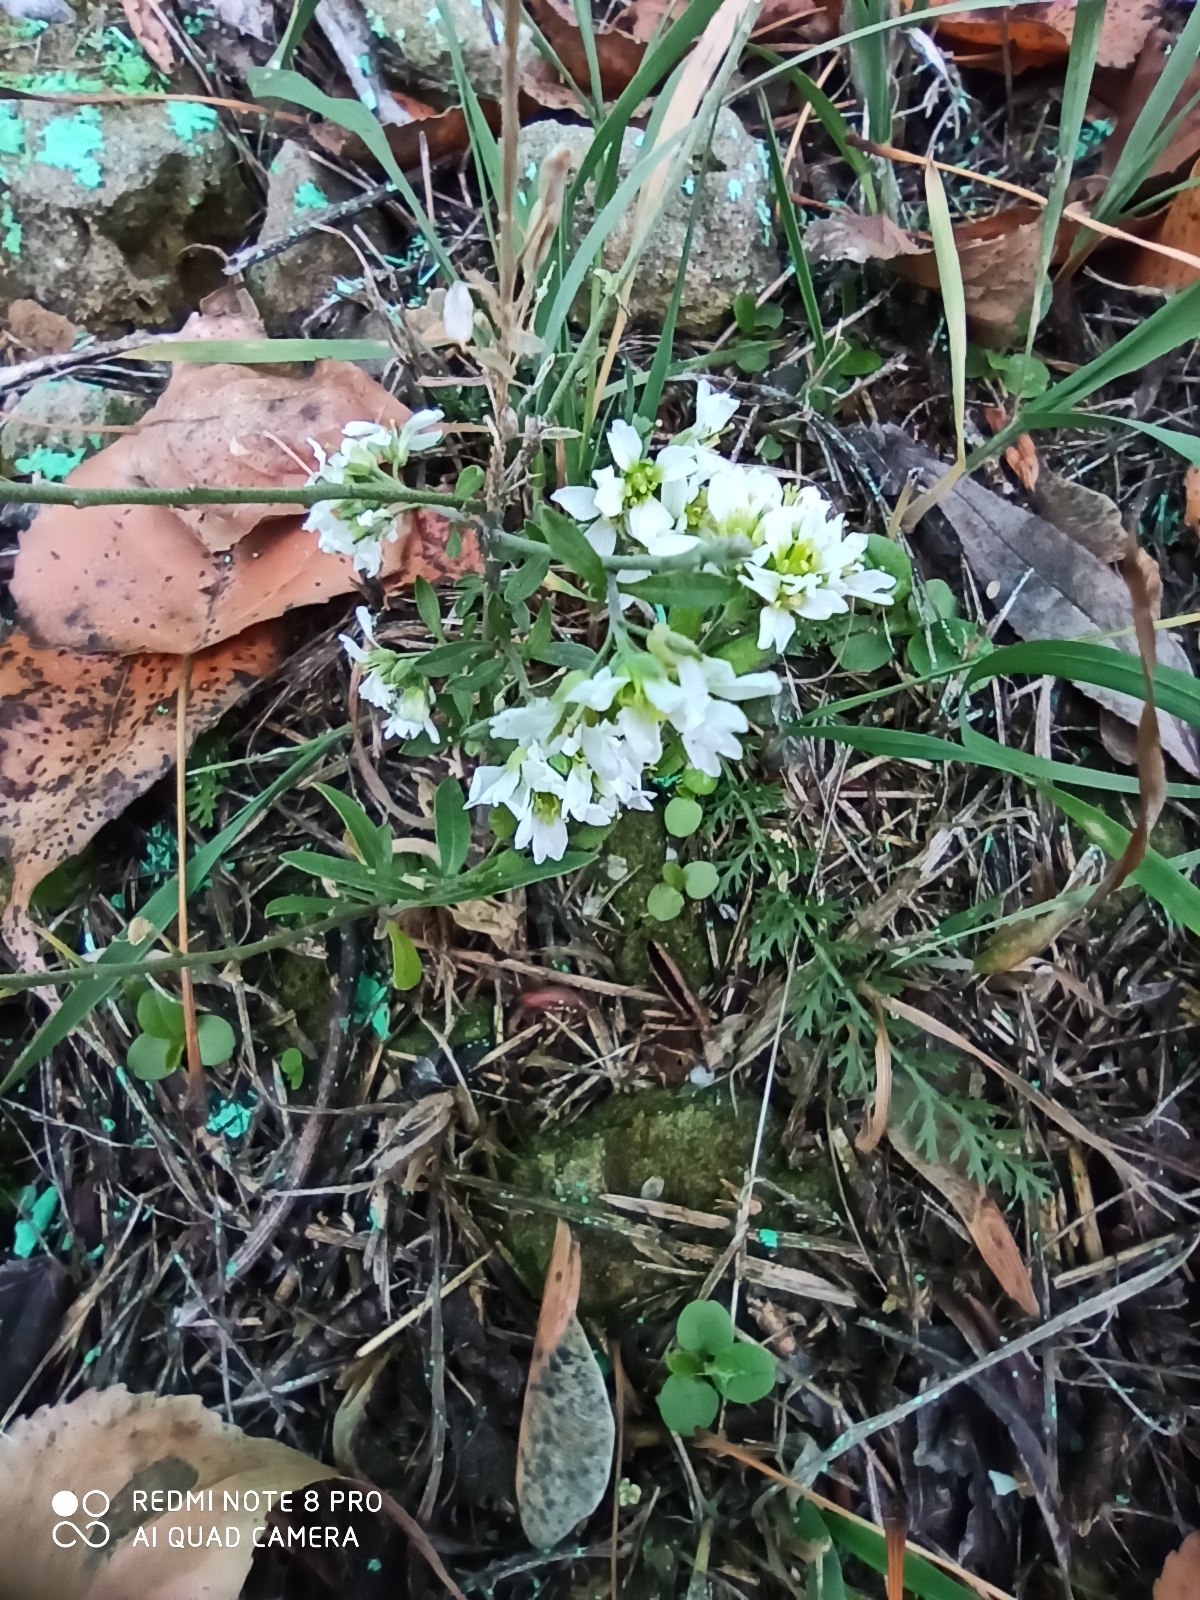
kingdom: Plantae
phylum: Tracheophyta
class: Magnoliopsida
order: Brassicales
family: Brassicaceae
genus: Berteroa
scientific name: Berteroa incana
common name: Hoary alison
